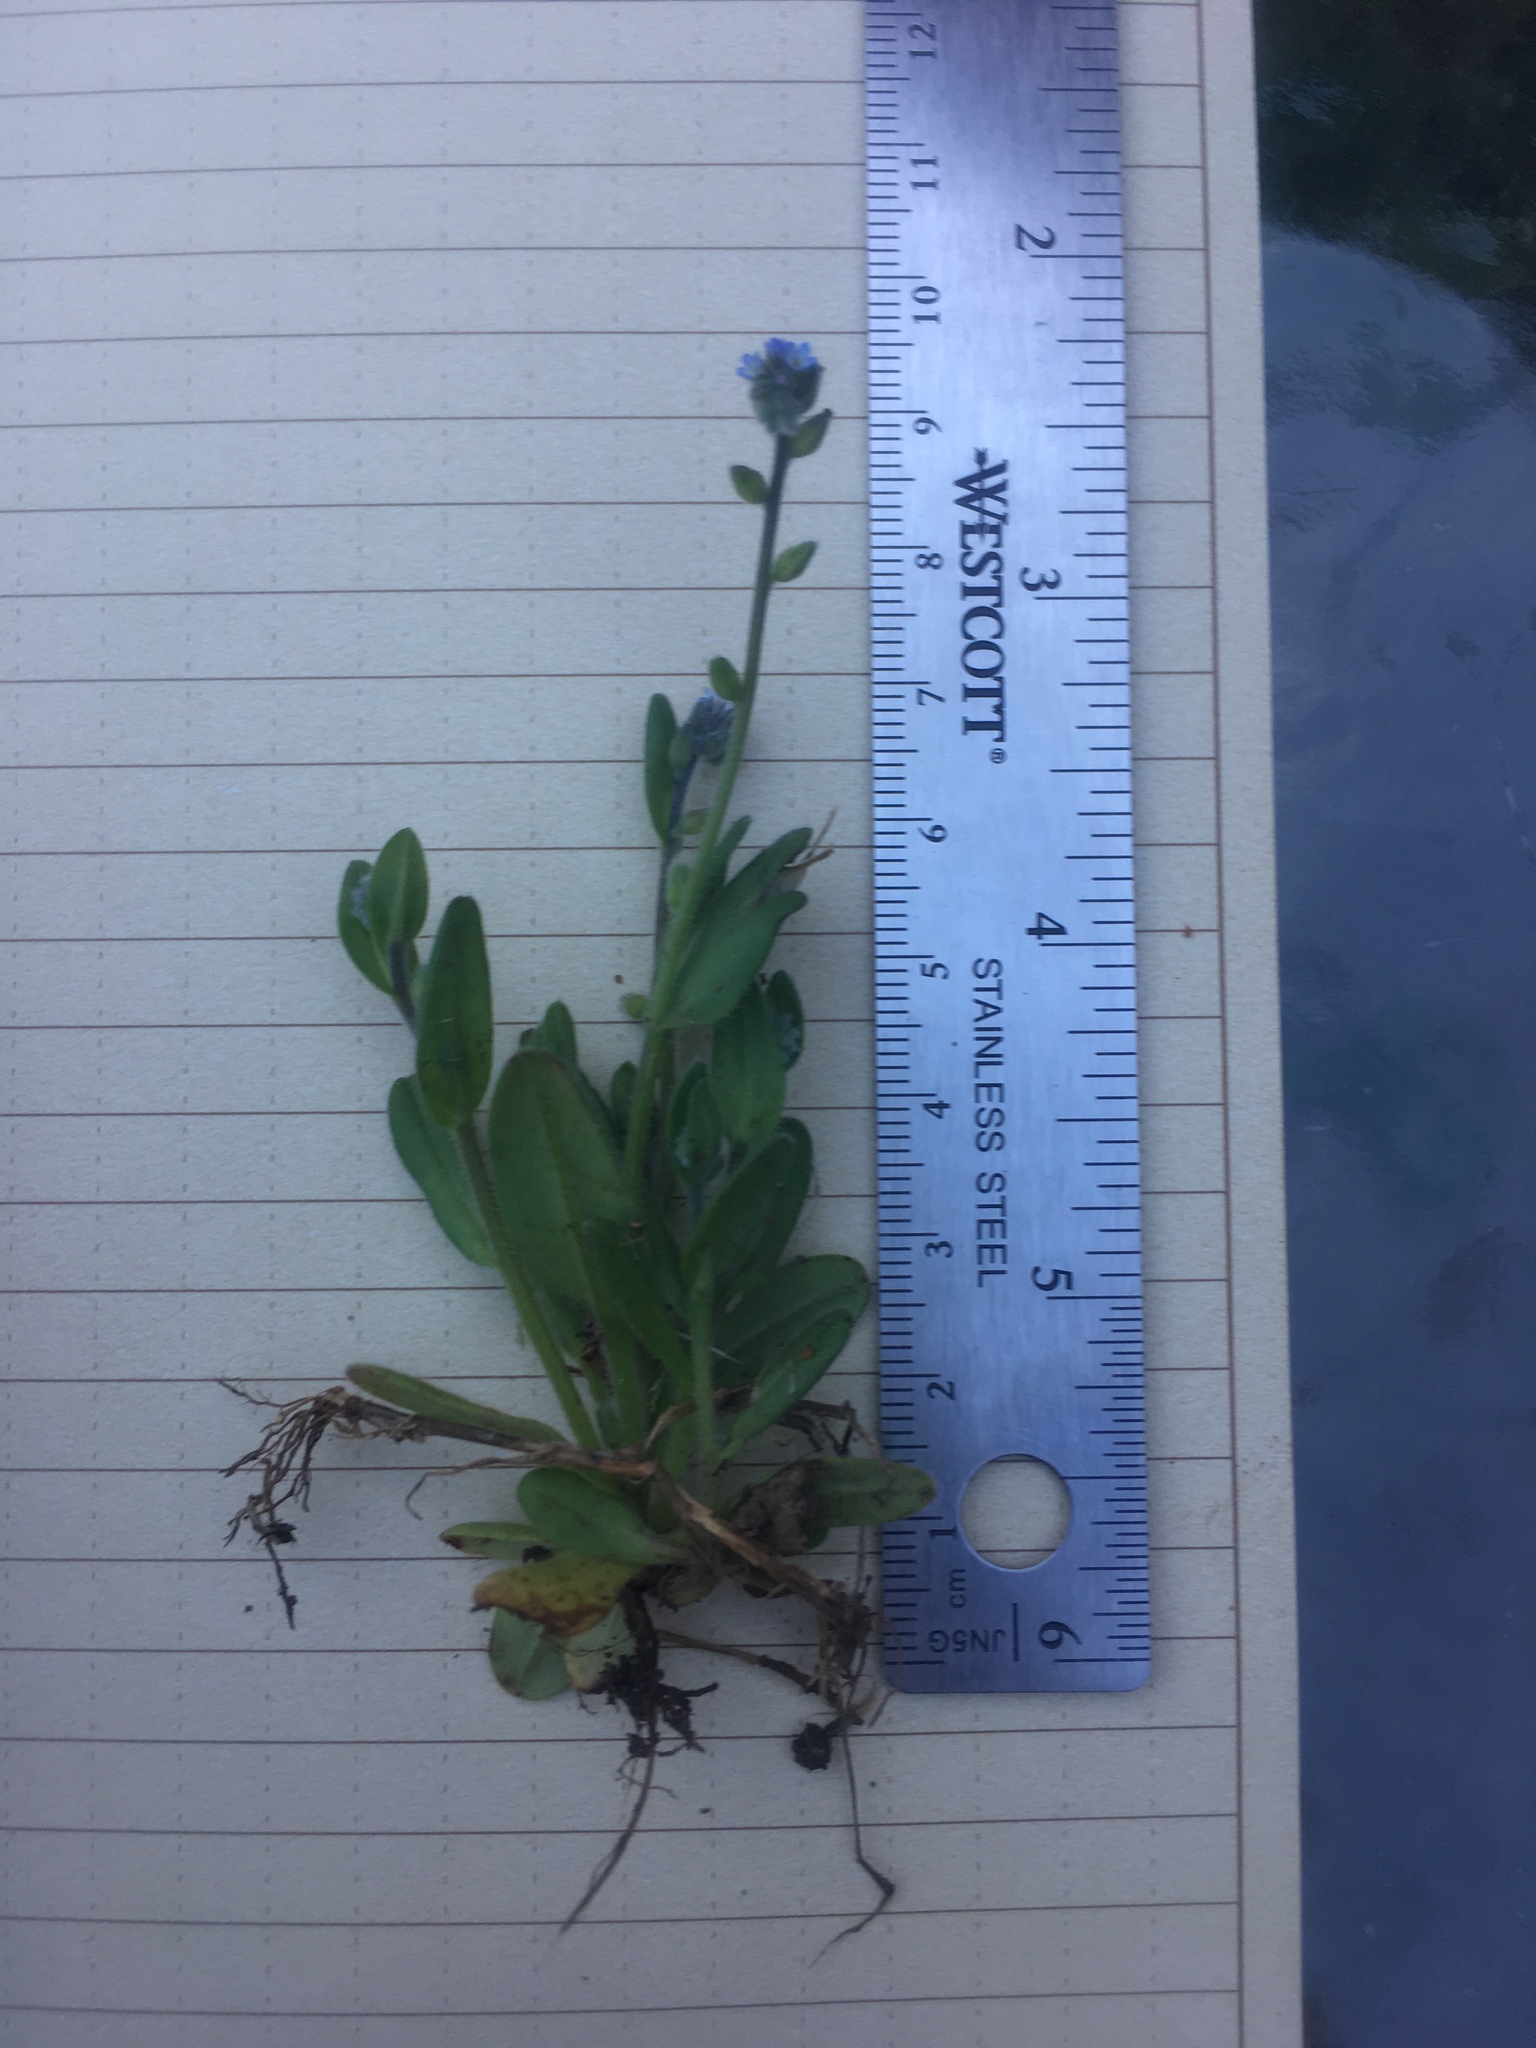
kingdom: Plantae
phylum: Tracheophyta
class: Magnoliopsida
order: Boraginales
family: Boraginaceae
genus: Myosotis
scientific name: Myosotis stricta
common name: Strict forget-me-not
